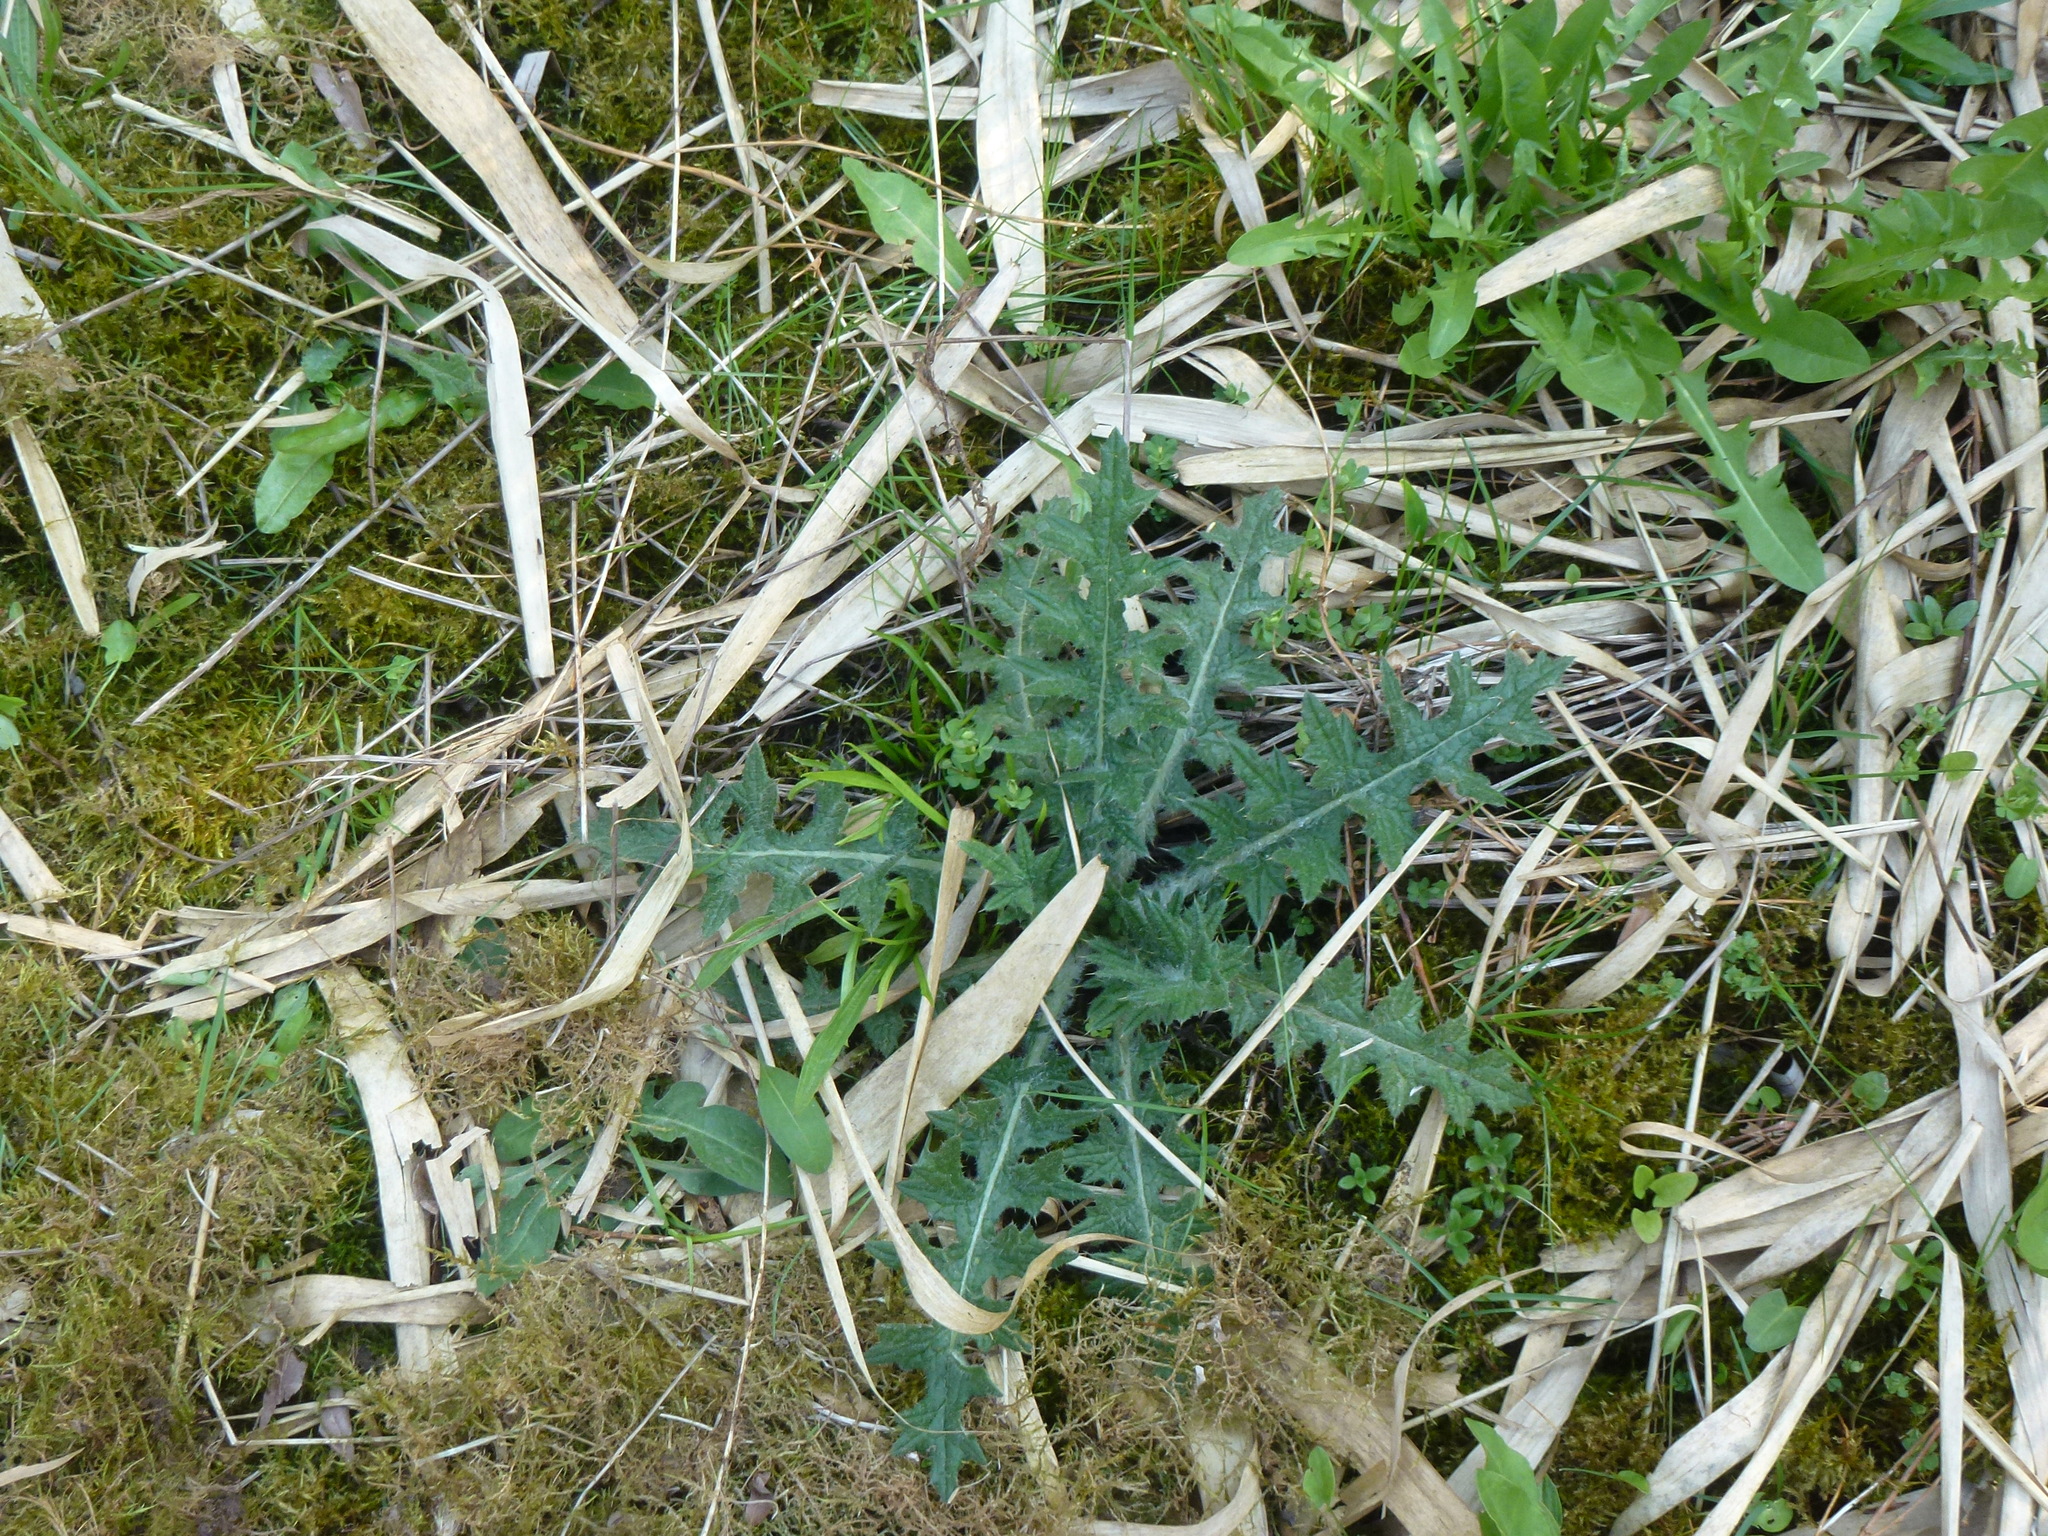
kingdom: Plantae
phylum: Tracheophyta
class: Magnoliopsida
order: Asterales
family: Asteraceae
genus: Cirsium
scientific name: Cirsium vulgare
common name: Bull thistle
